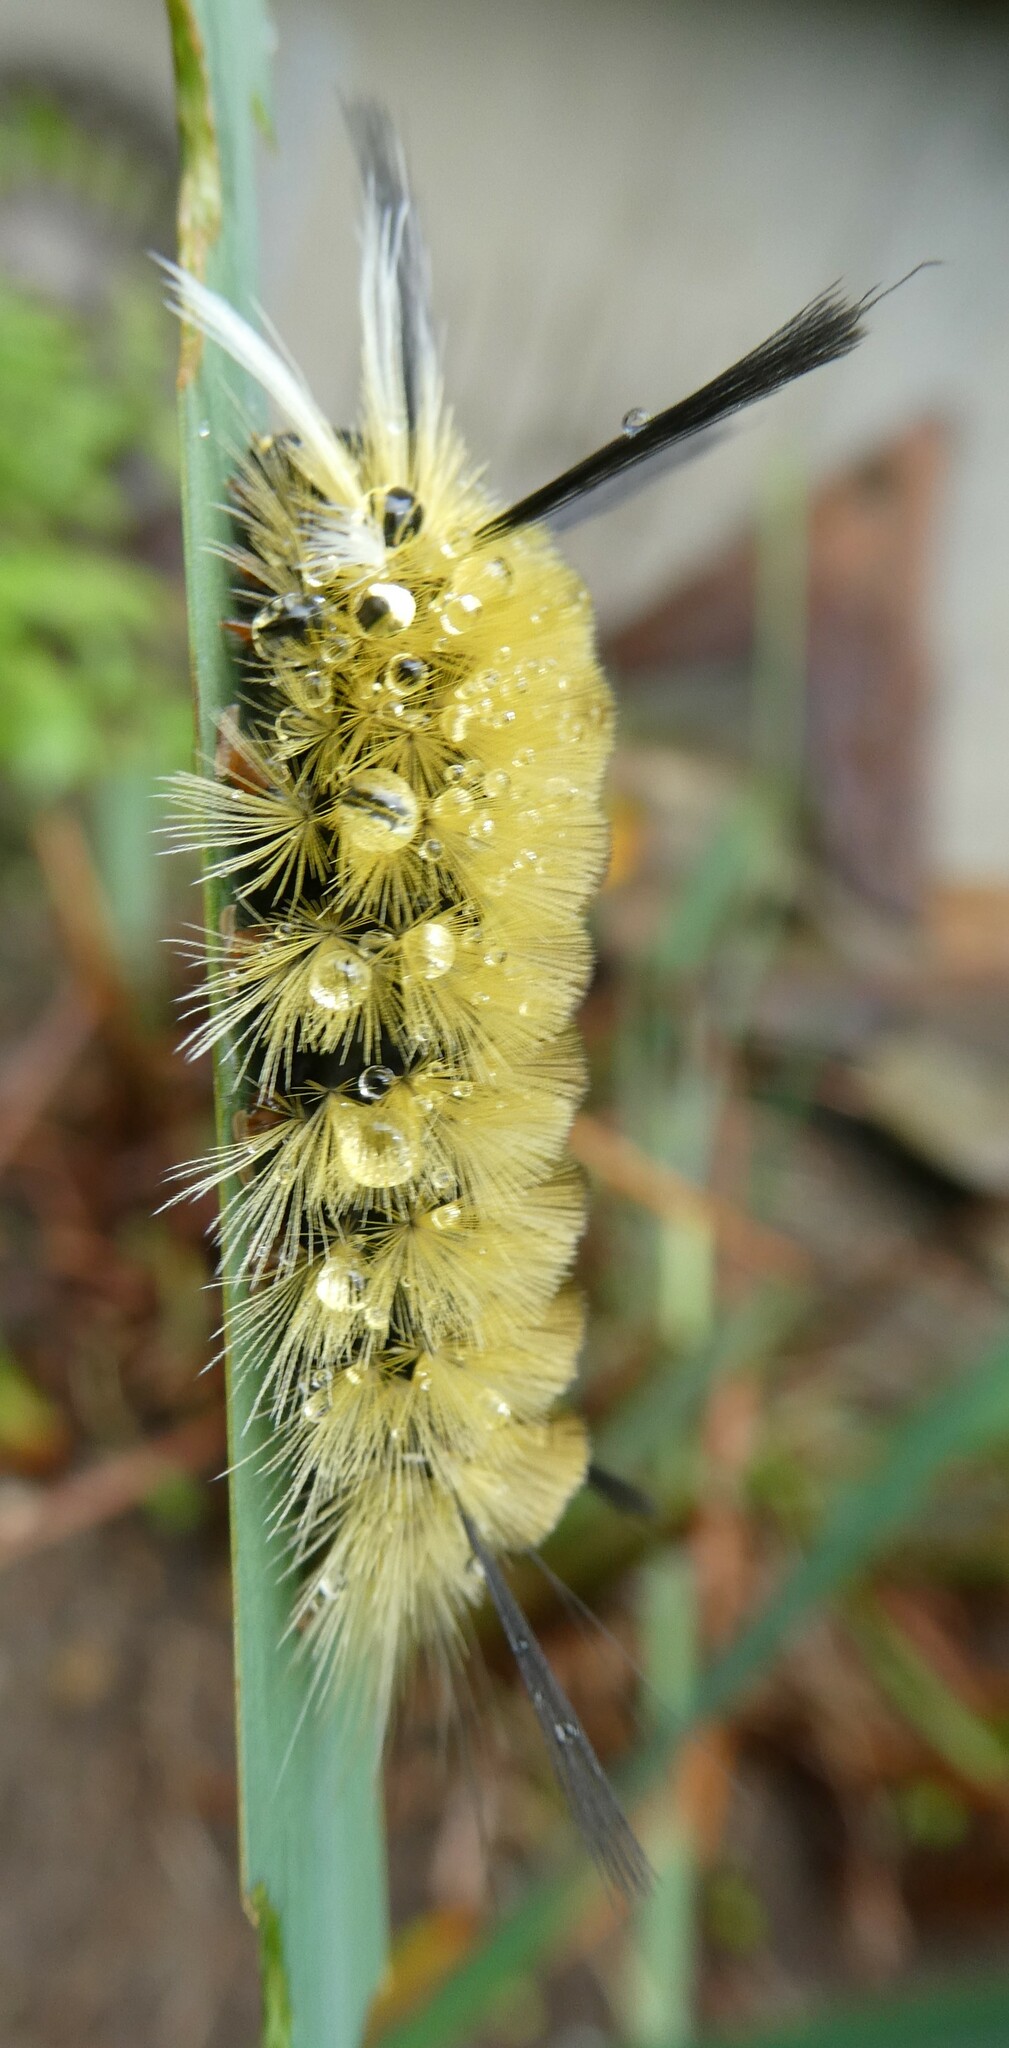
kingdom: Animalia
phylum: Arthropoda
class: Insecta
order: Lepidoptera
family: Erebidae
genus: Halysidota
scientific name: Halysidota tessellaris
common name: Banded tussock moth
